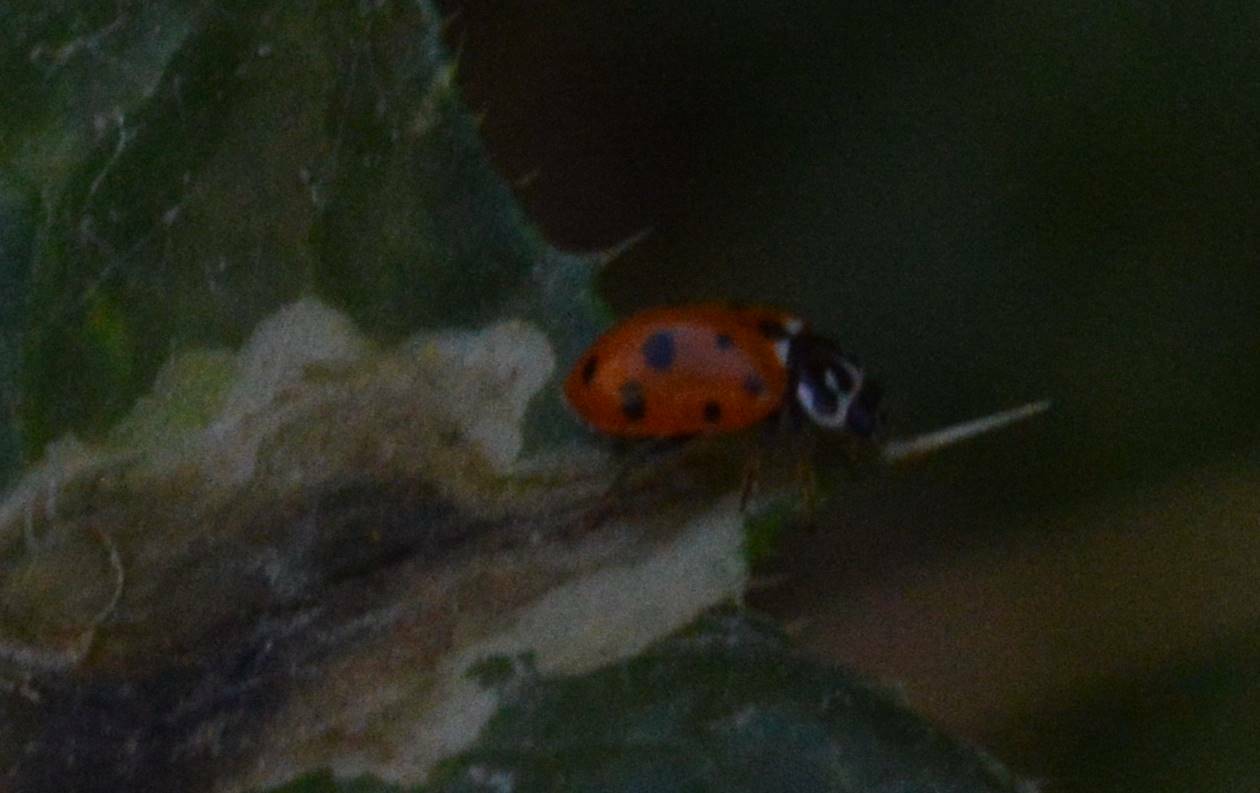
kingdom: Animalia
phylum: Arthropoda
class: Insecta
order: Coleoptera
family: Coccinellidae
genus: Hippodamia
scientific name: Hippodamia variegata
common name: Ladybird beetle
